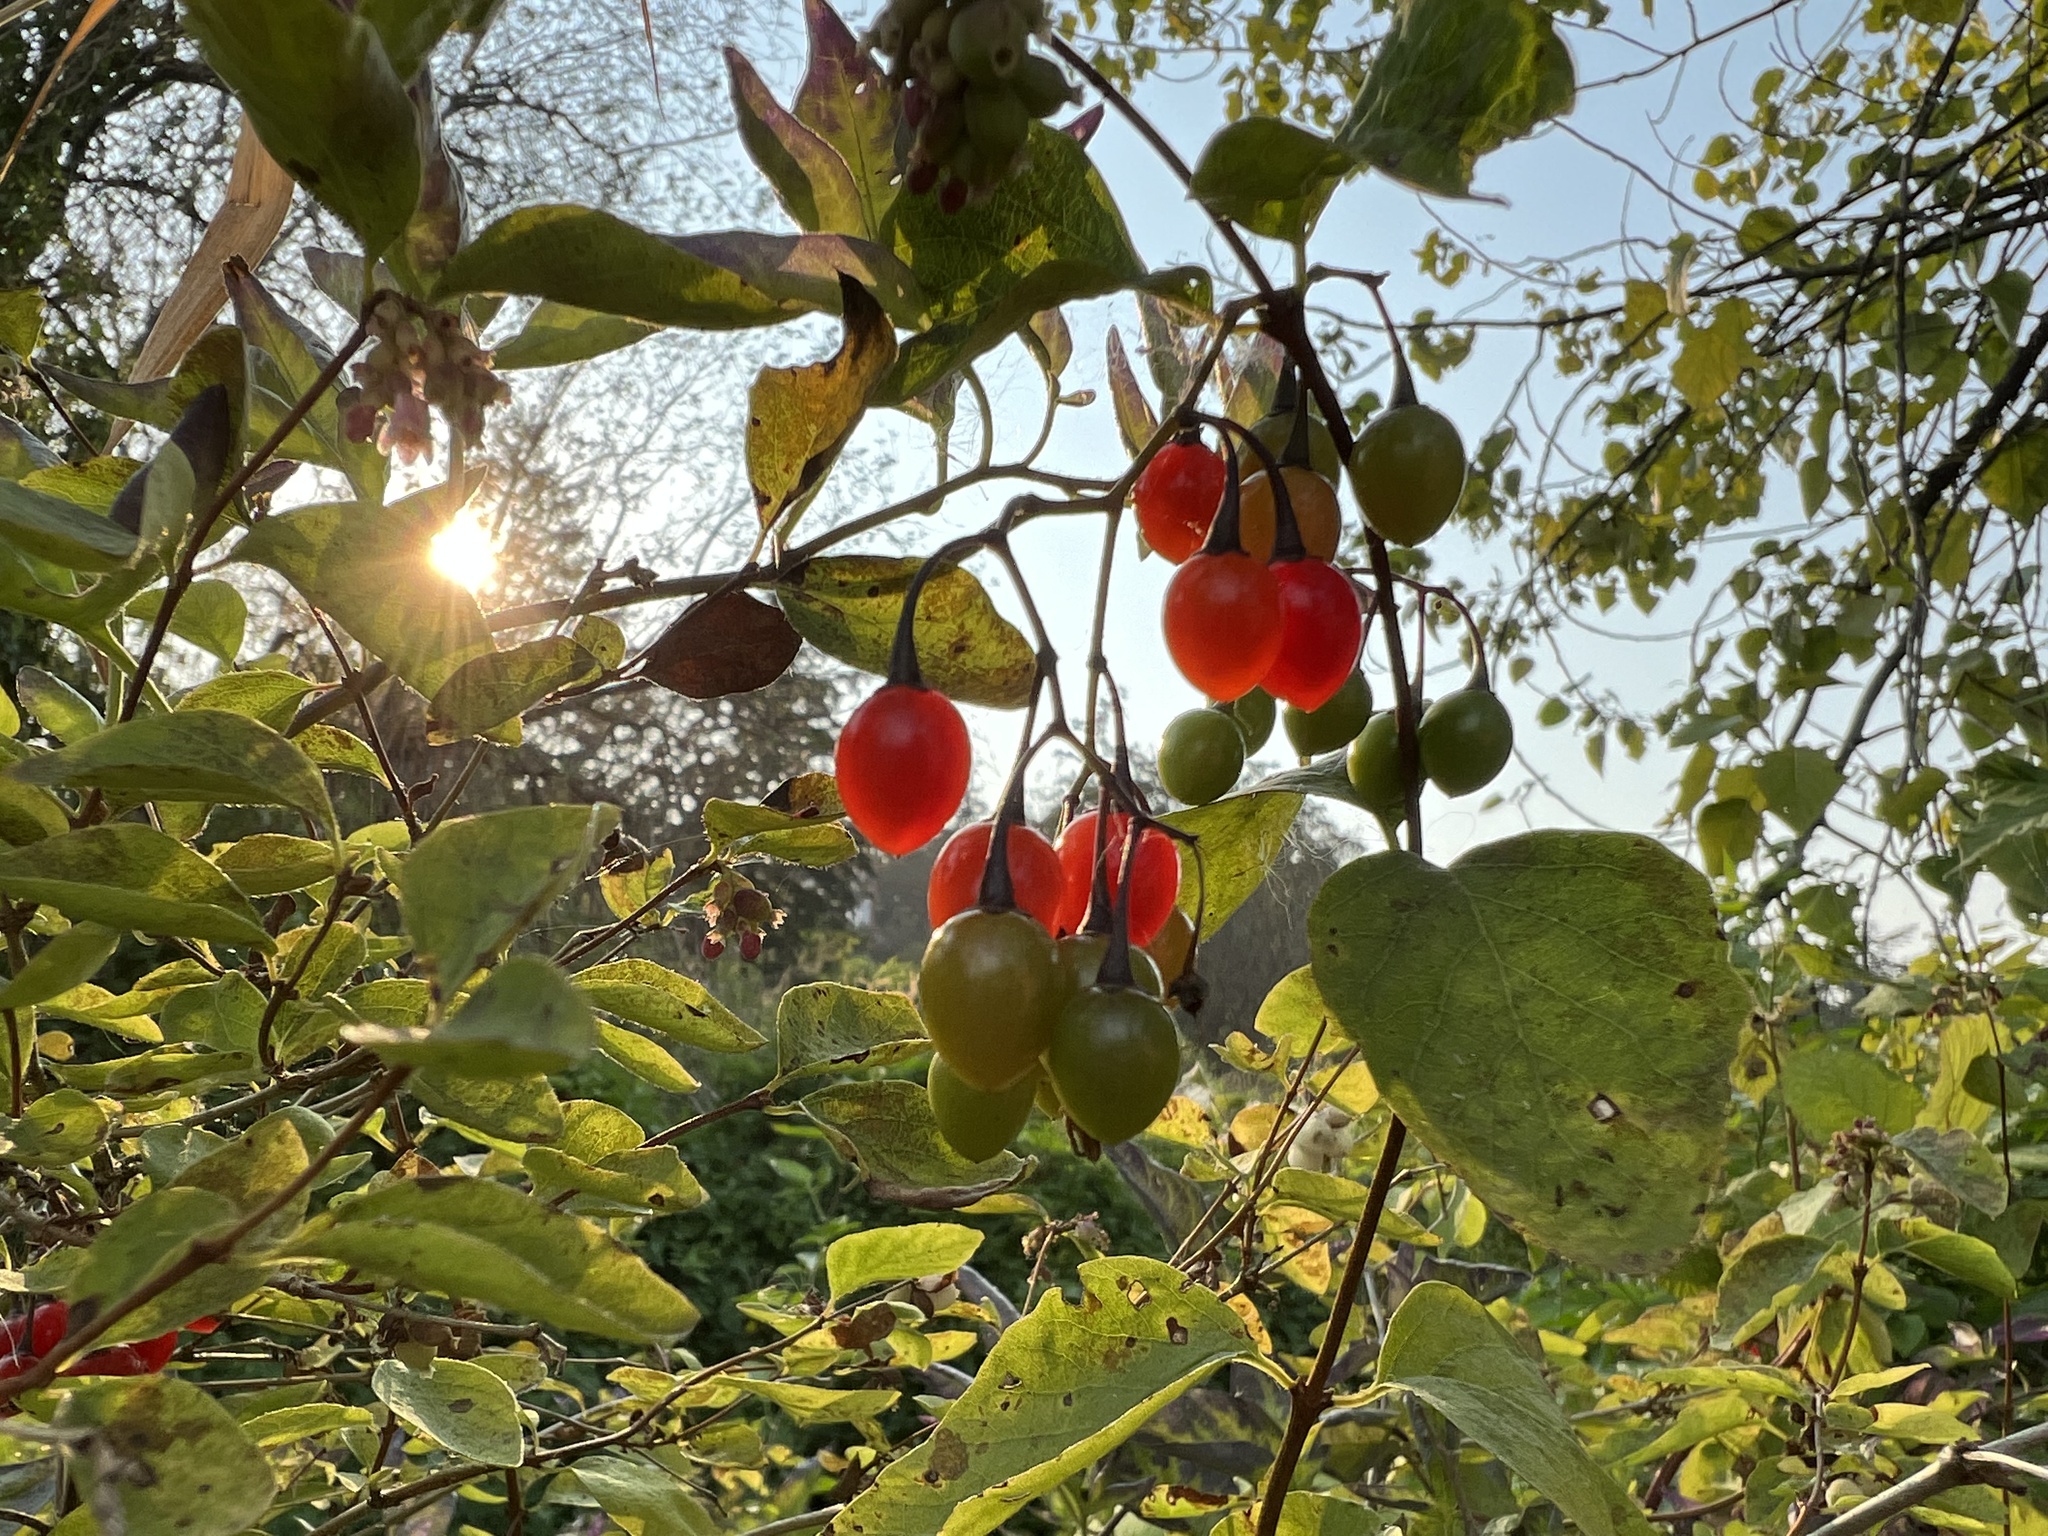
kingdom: Plantae
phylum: Tracheophyta
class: Magnoliopsida
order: Solanales
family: Solanaceae
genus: Solanum
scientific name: Solanum dulcamara
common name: Climbing nightshade
